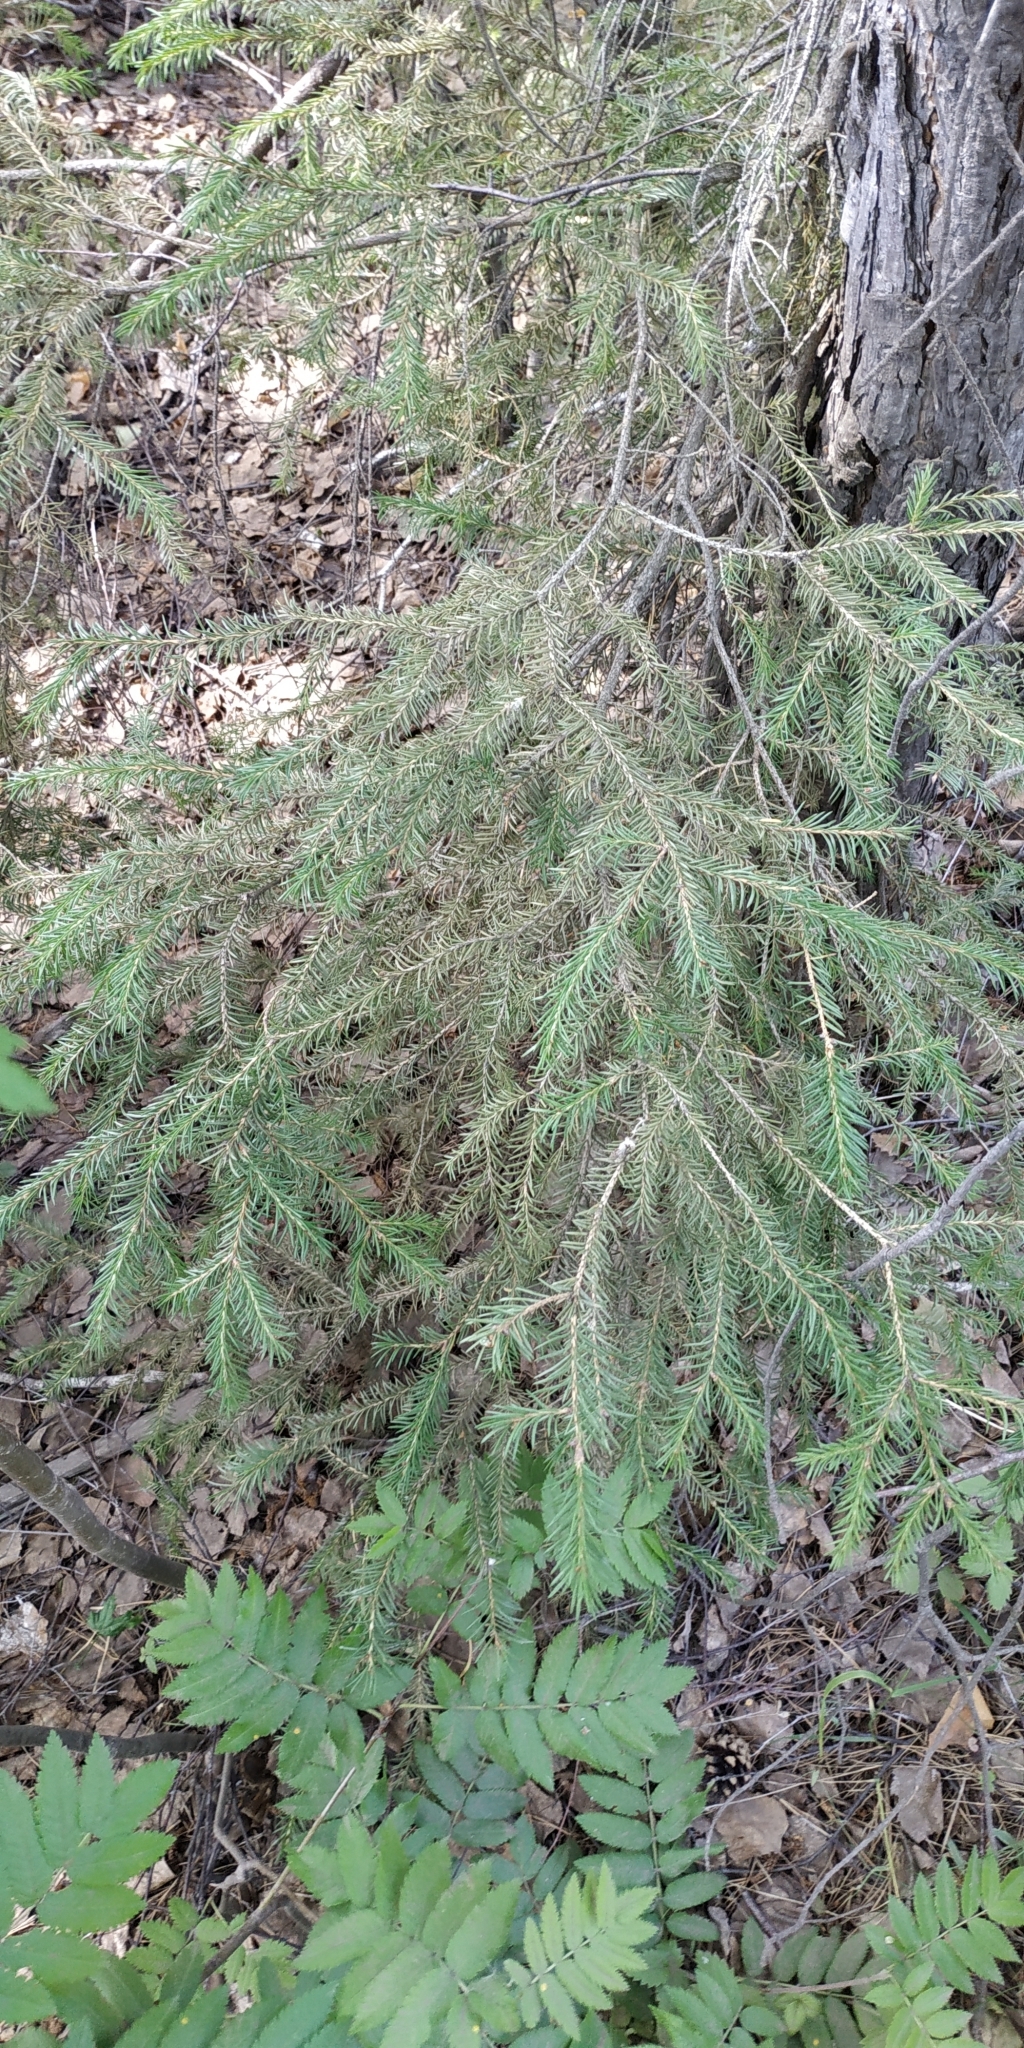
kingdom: Plantae
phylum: Tracheophyta
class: Pinopsida
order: Pinales
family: Pinaceae
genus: Picea
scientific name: Picea obovata
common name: Siberian spruce
